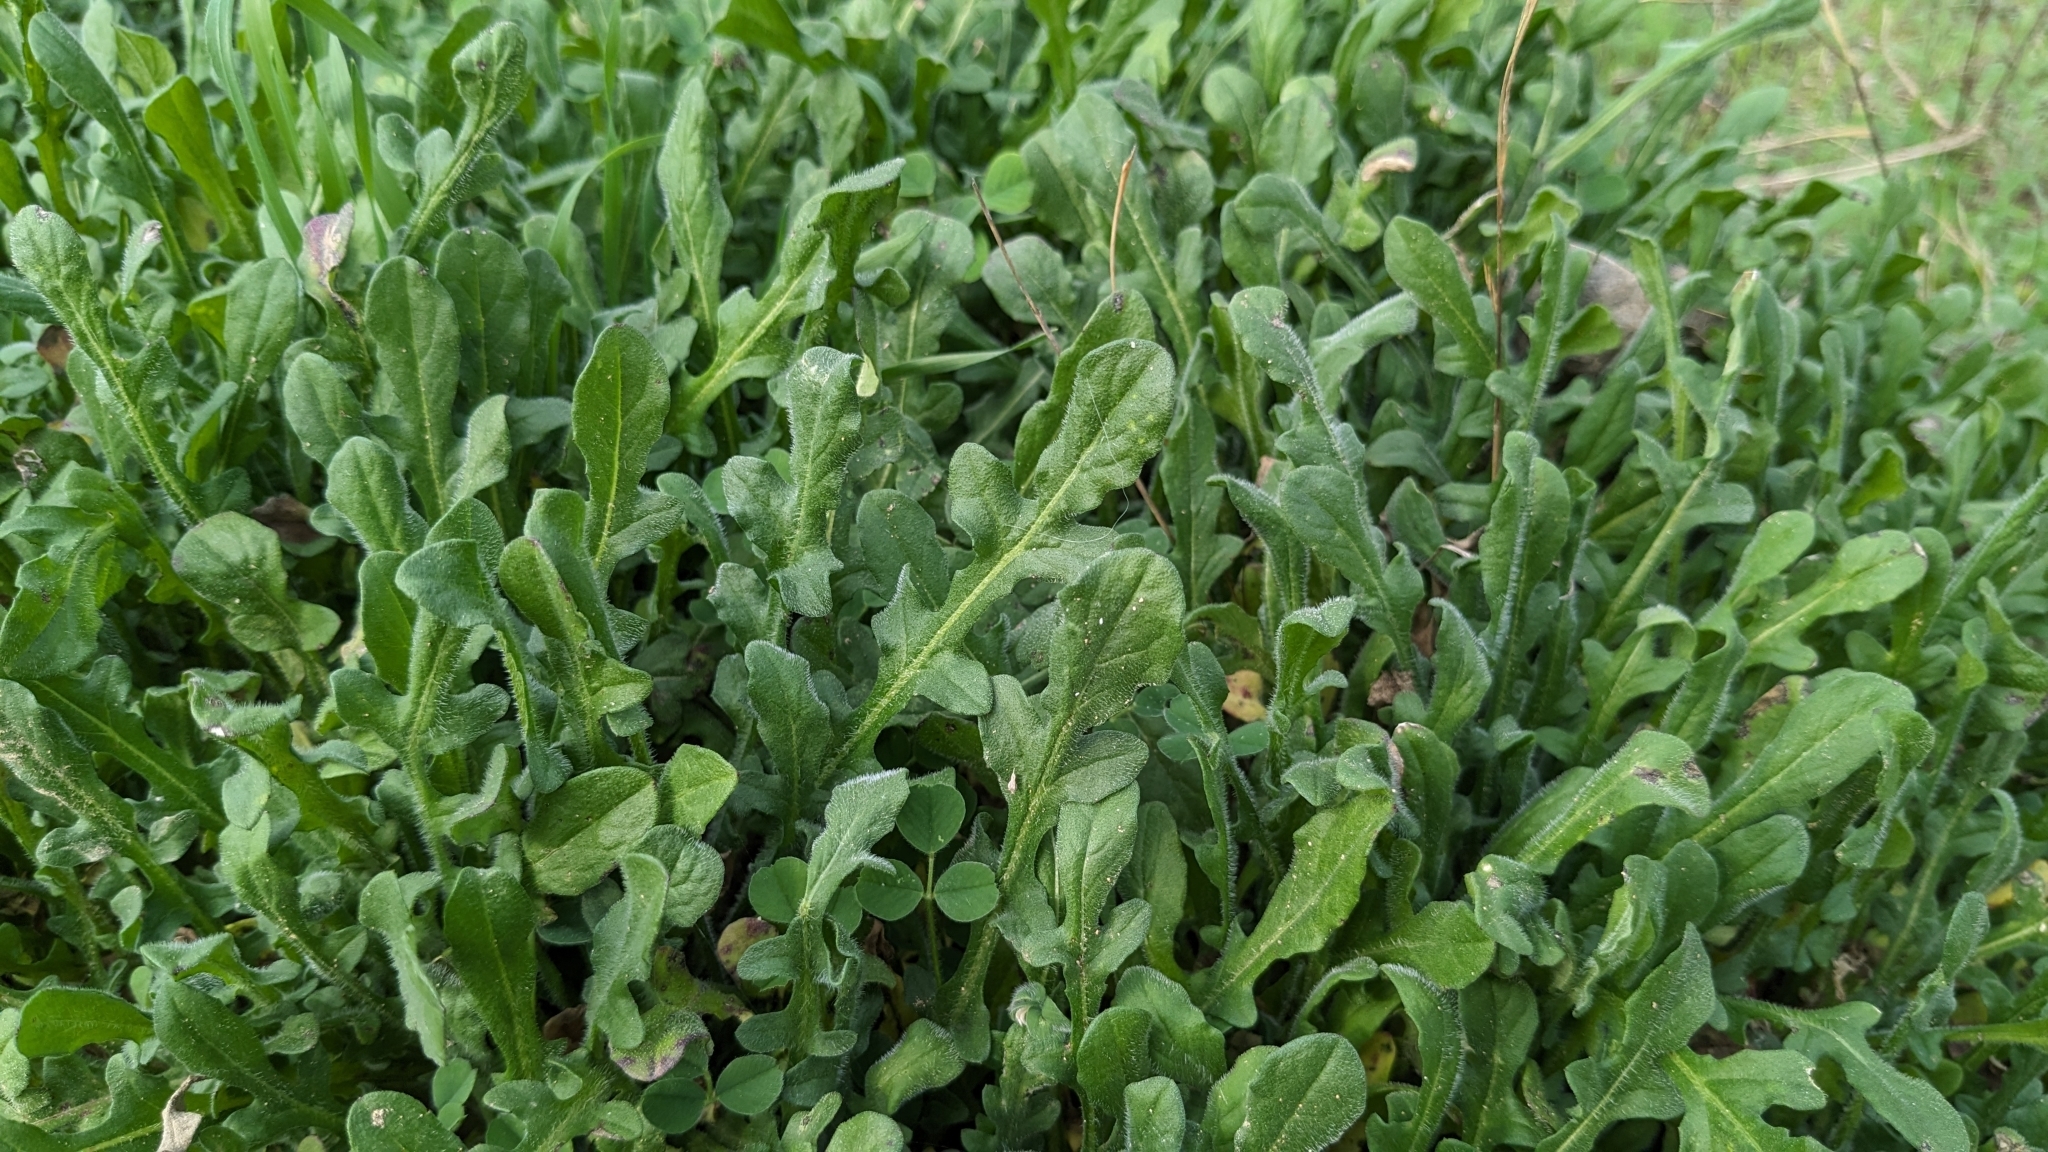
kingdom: Plantae
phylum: Tracheophyta
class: Magnoliopsida
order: Asterales
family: Asteraceae
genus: Centaurea
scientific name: Centaurea melitensis
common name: Maltese star-thistle
